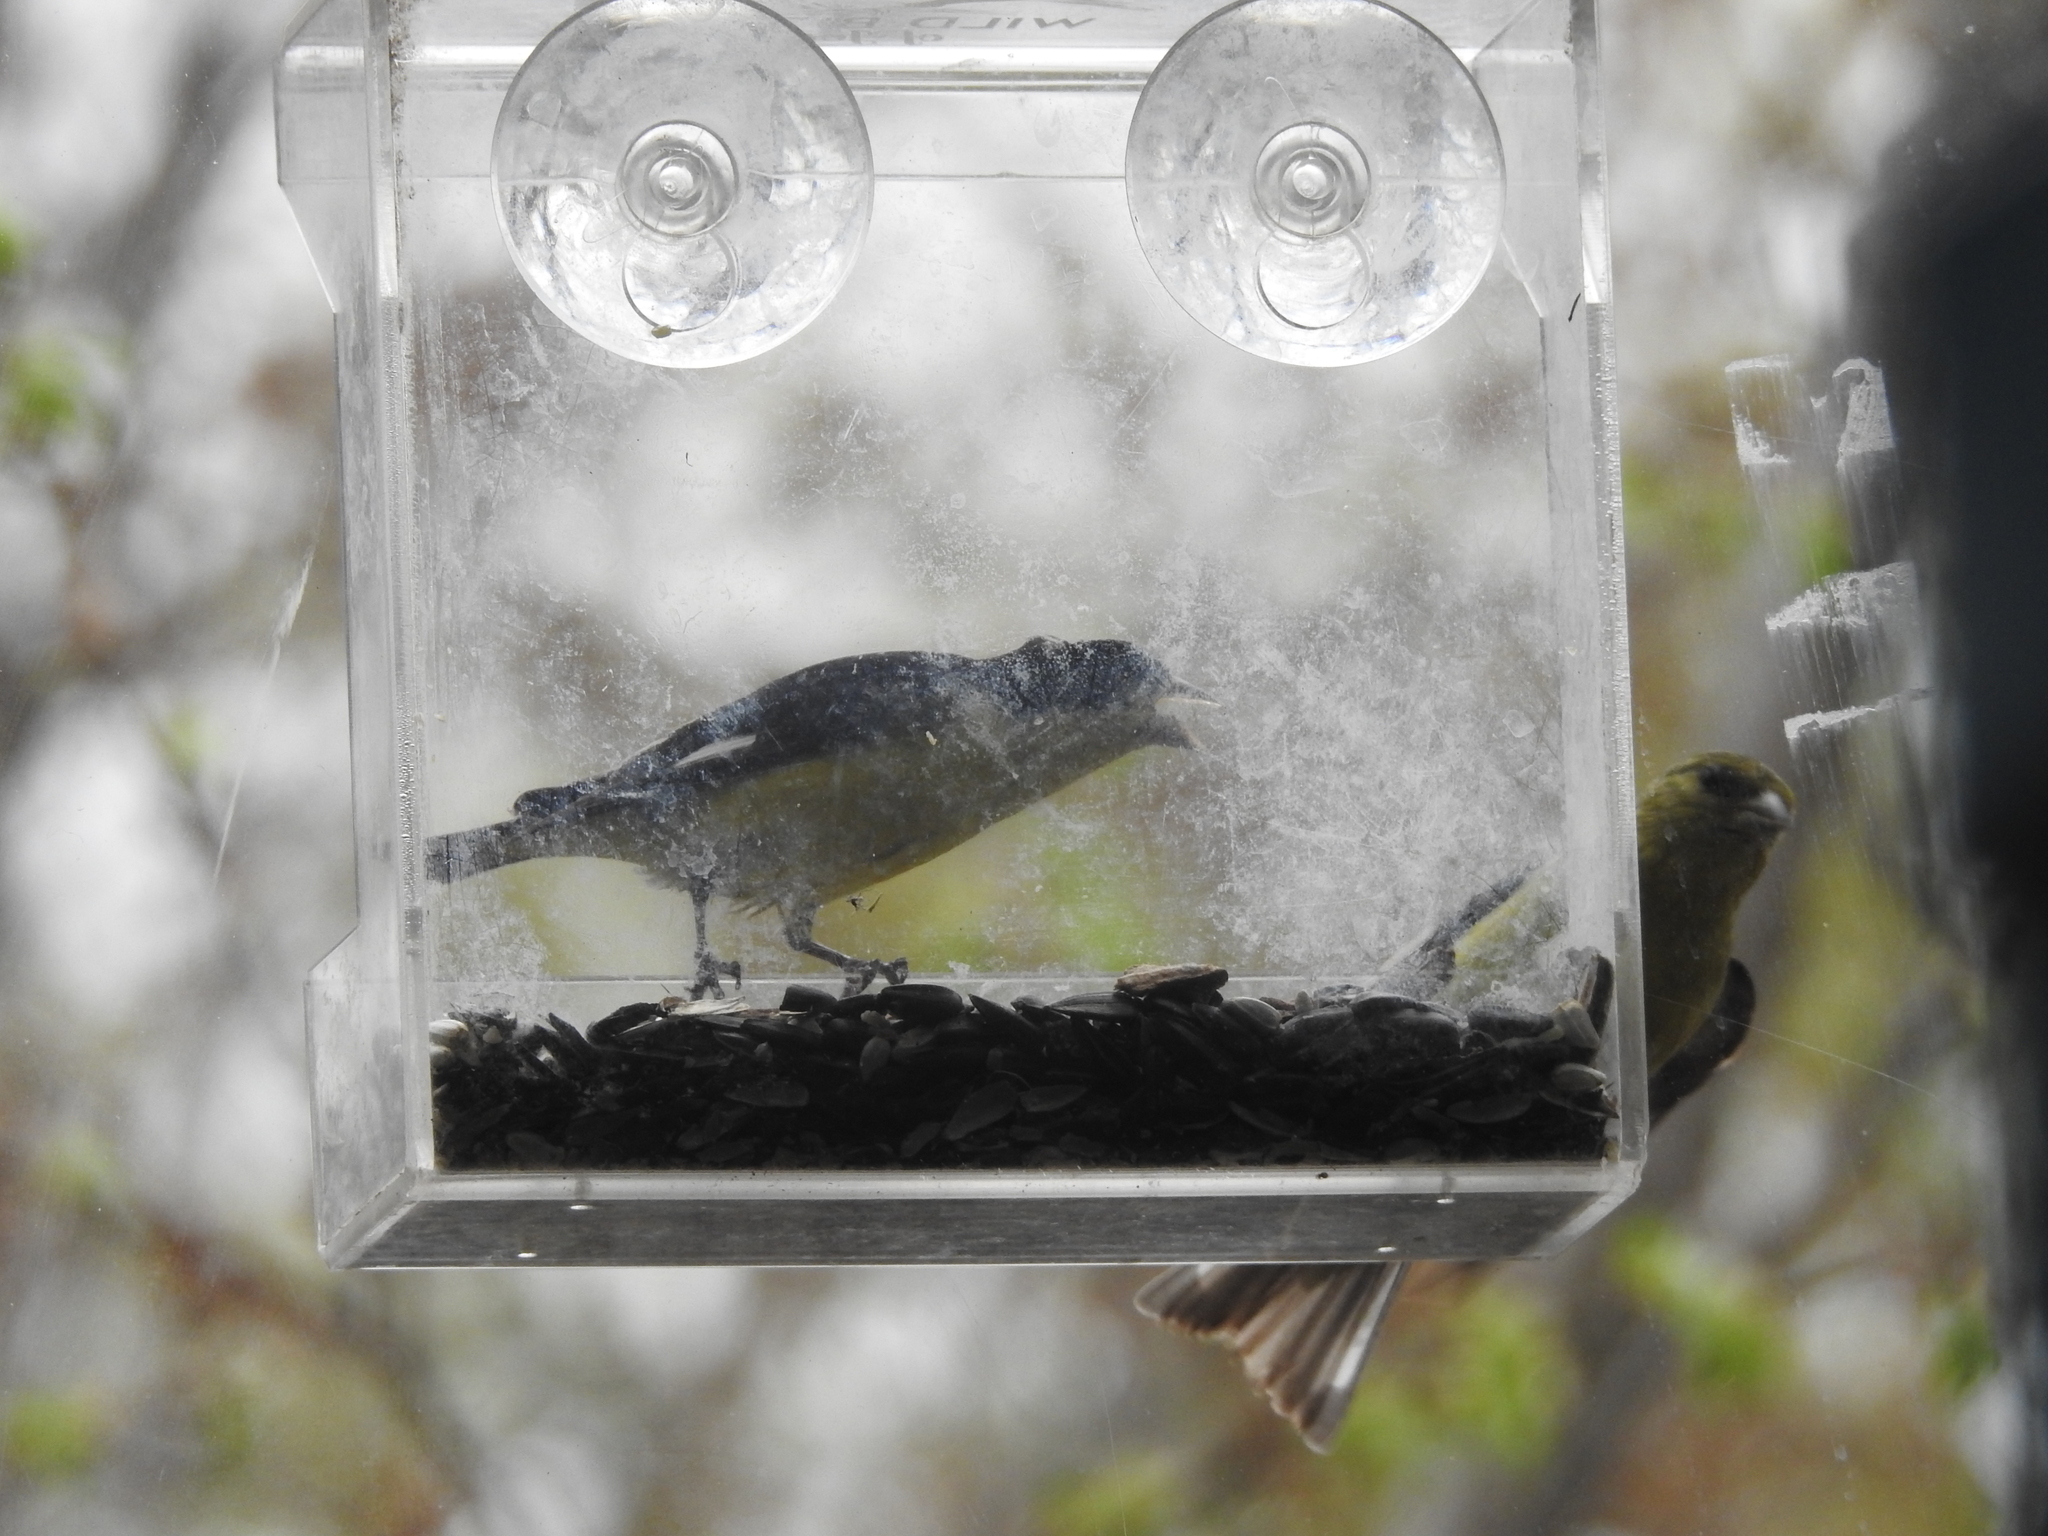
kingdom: Animalia
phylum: Chordata
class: Aves
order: Passeriformes
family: Fringillidae
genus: Spinus
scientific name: Spinus psaltria
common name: Lesser goldfinch
